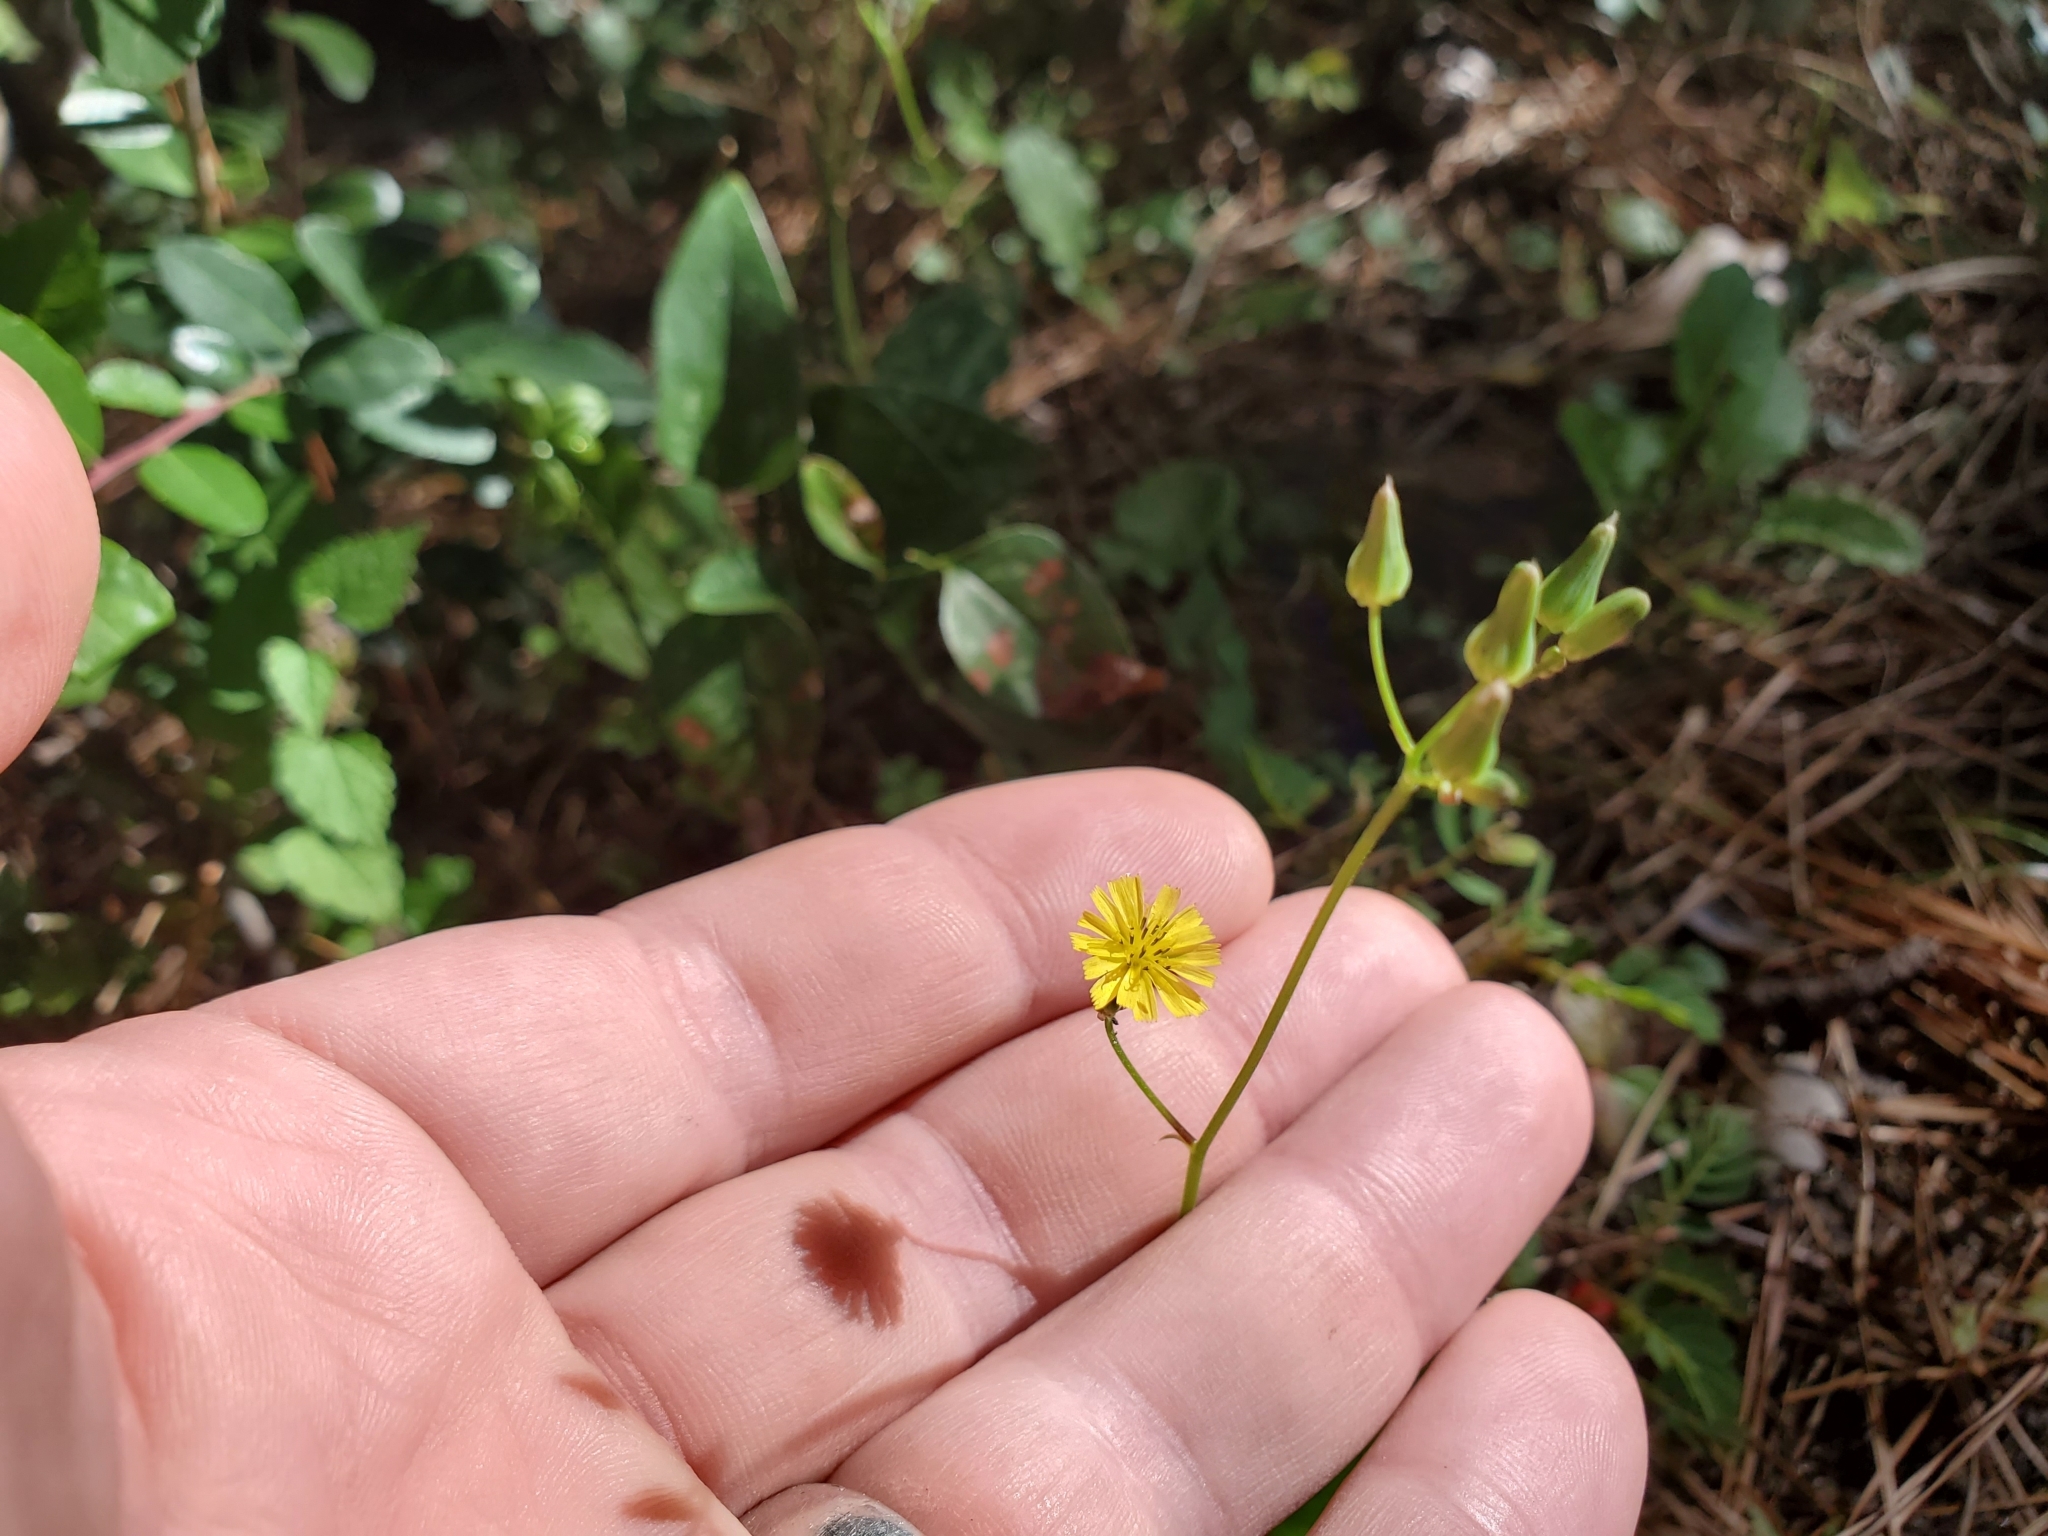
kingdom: Plantae
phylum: Tracheophyta
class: Magnoliopsida
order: Asterales
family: Asteraceae
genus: Youngia
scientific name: Youngia japonica
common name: Oriental false hawksbeard
